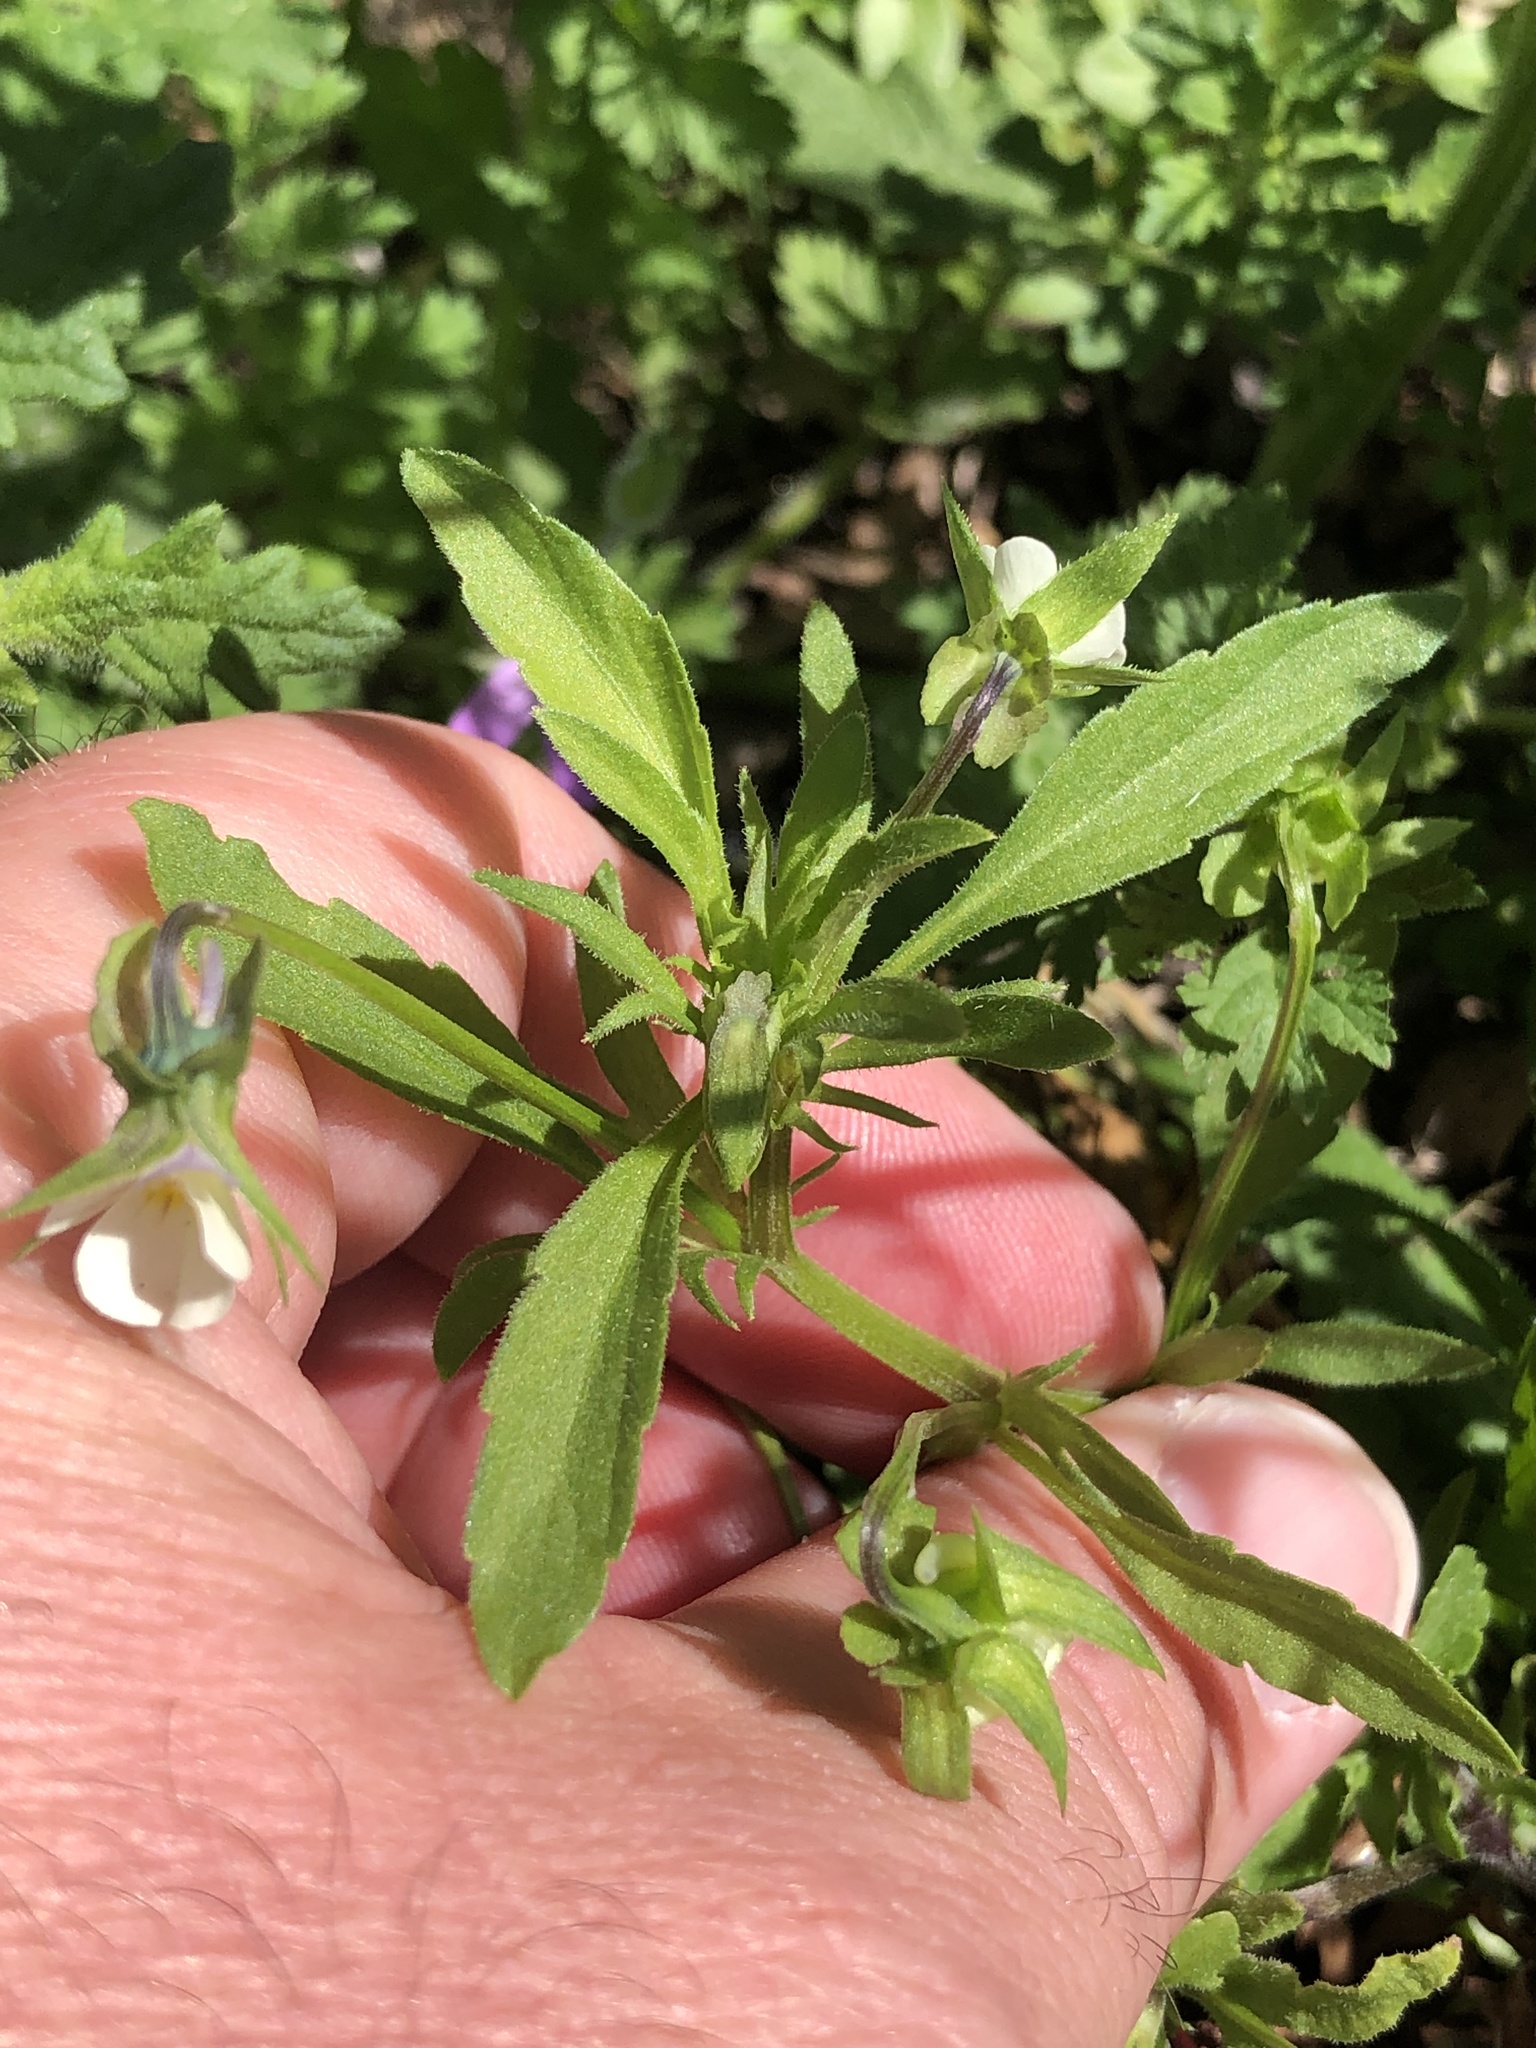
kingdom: Plantae
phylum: Tracheophyta
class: Magnoliopsida
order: Malpighiales
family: Violaceae
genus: Viola
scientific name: Viola arvensis
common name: Field pansy
